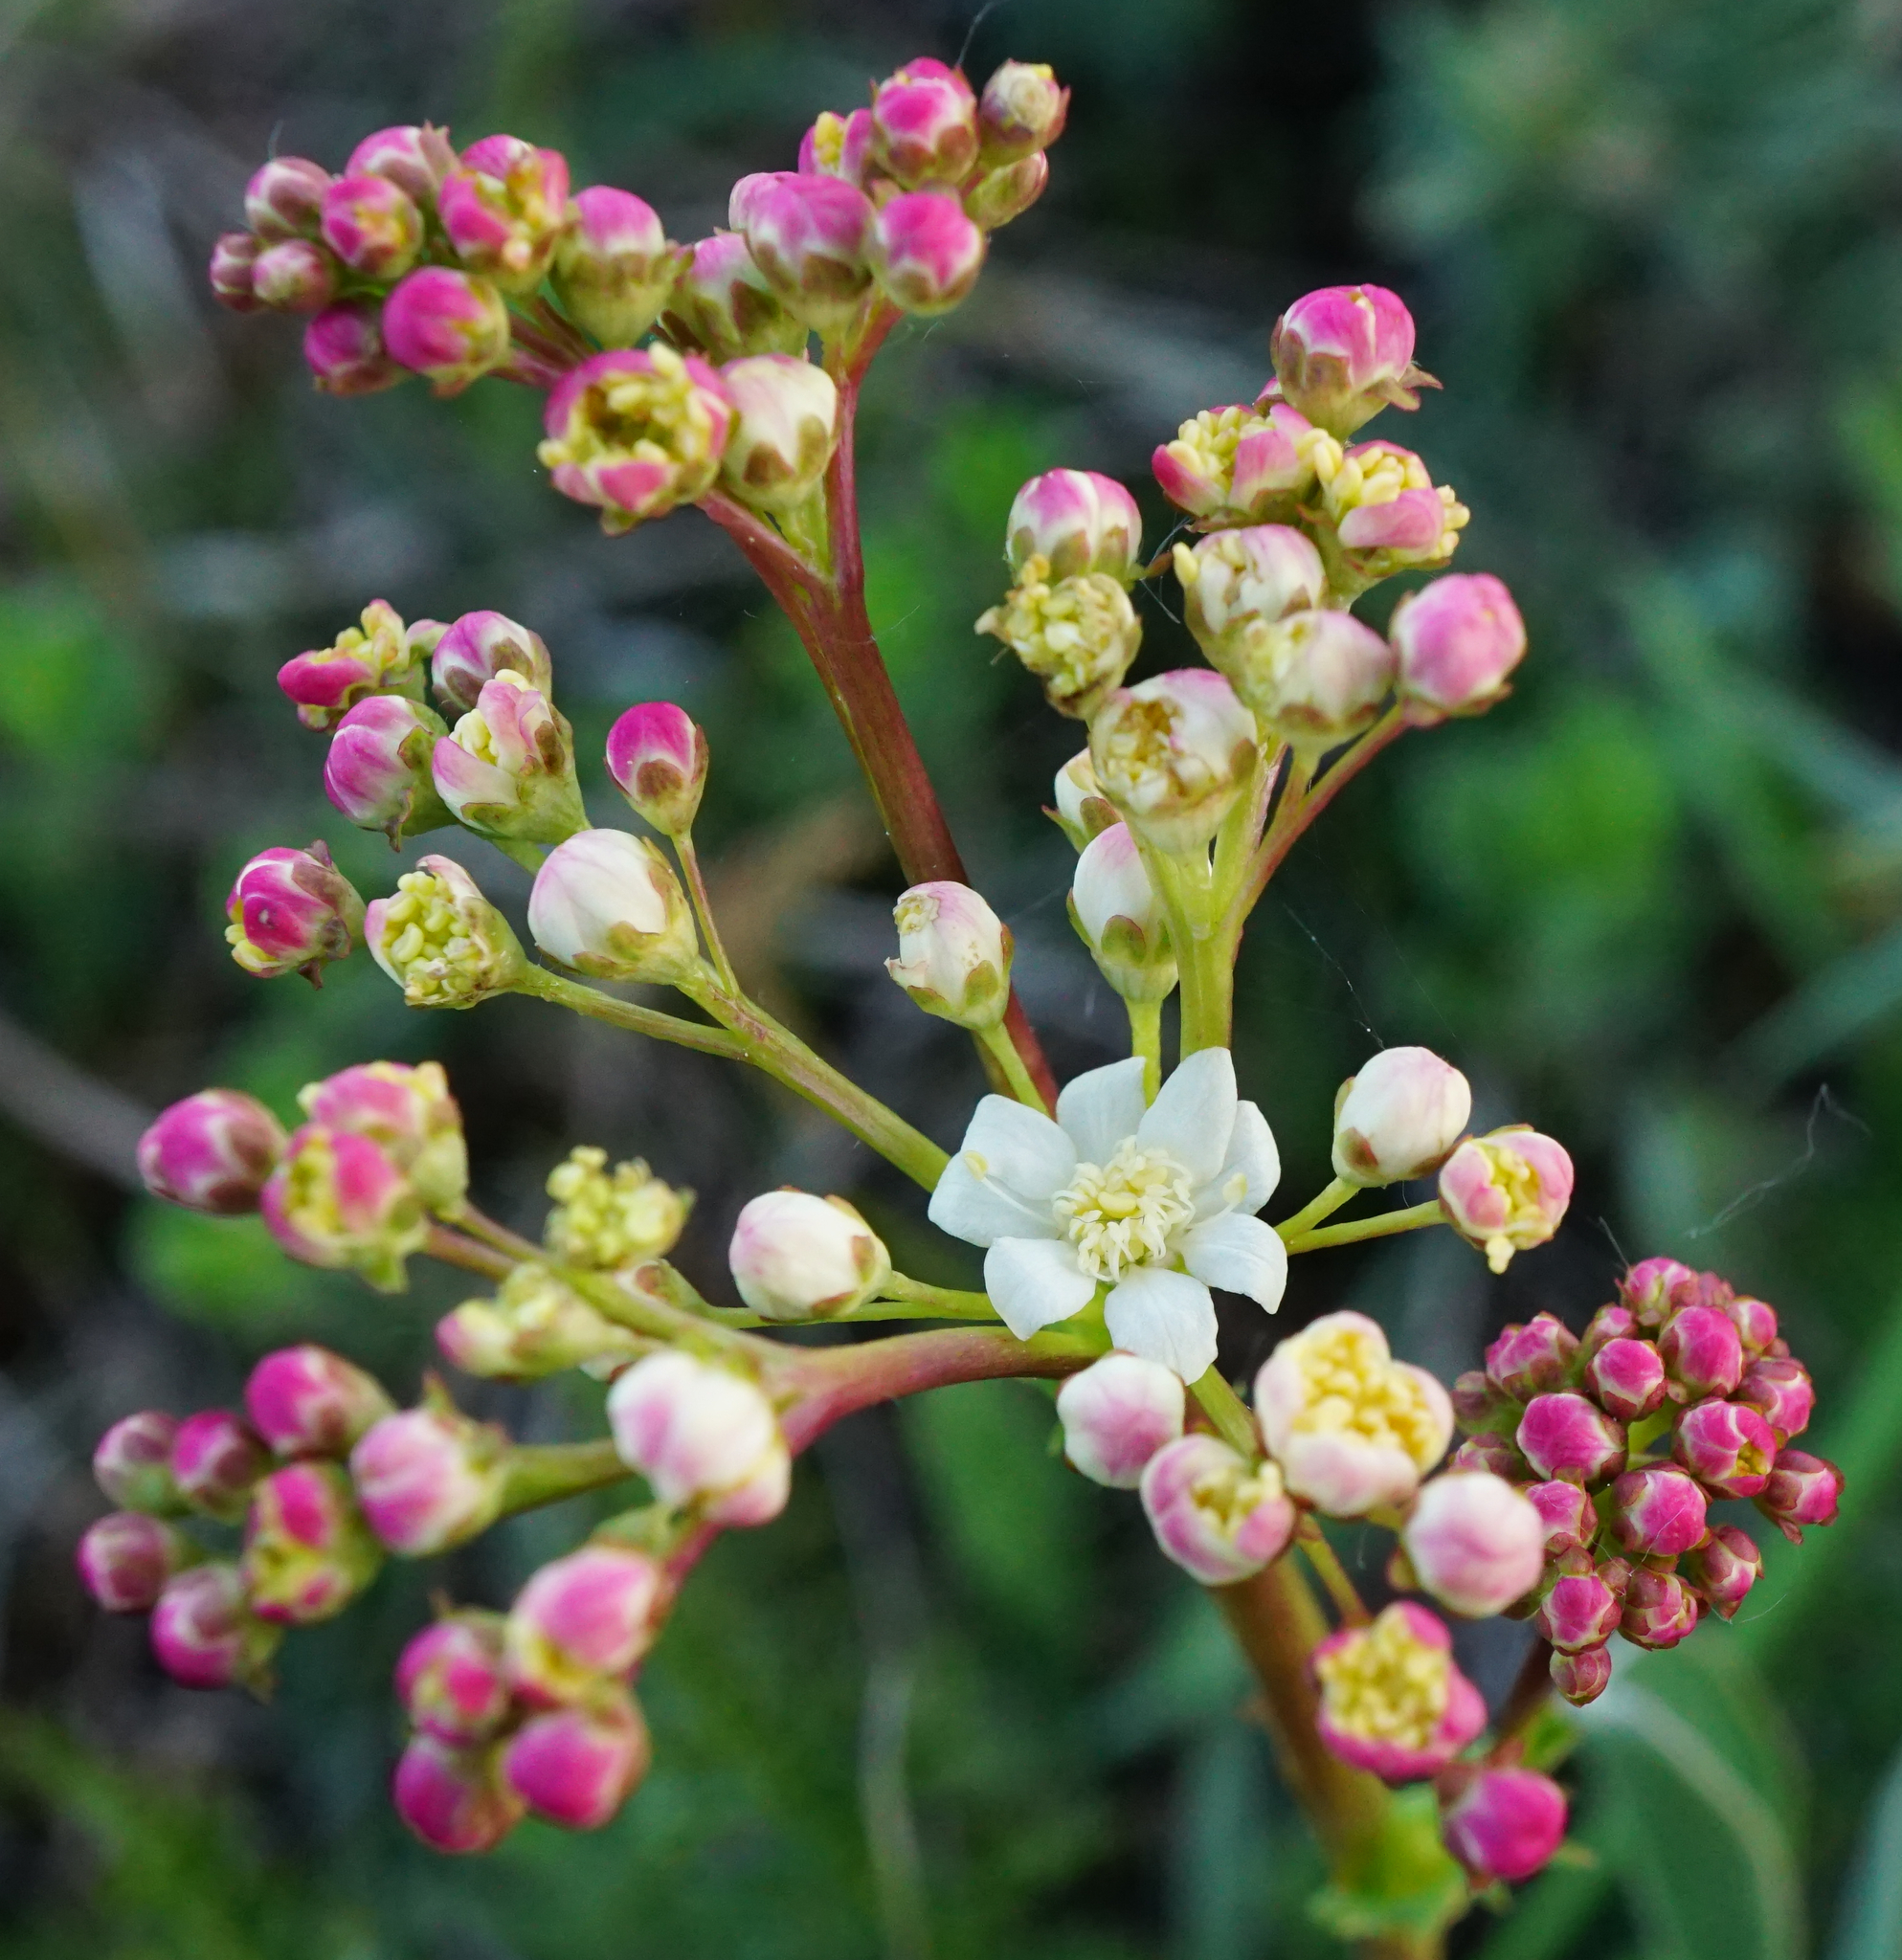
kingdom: Plantae
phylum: Tracheophyta
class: Magnoliopsida
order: Rosales
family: Rosaceae
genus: Filipendula
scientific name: Filipendula vulgaris
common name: Dropwort
